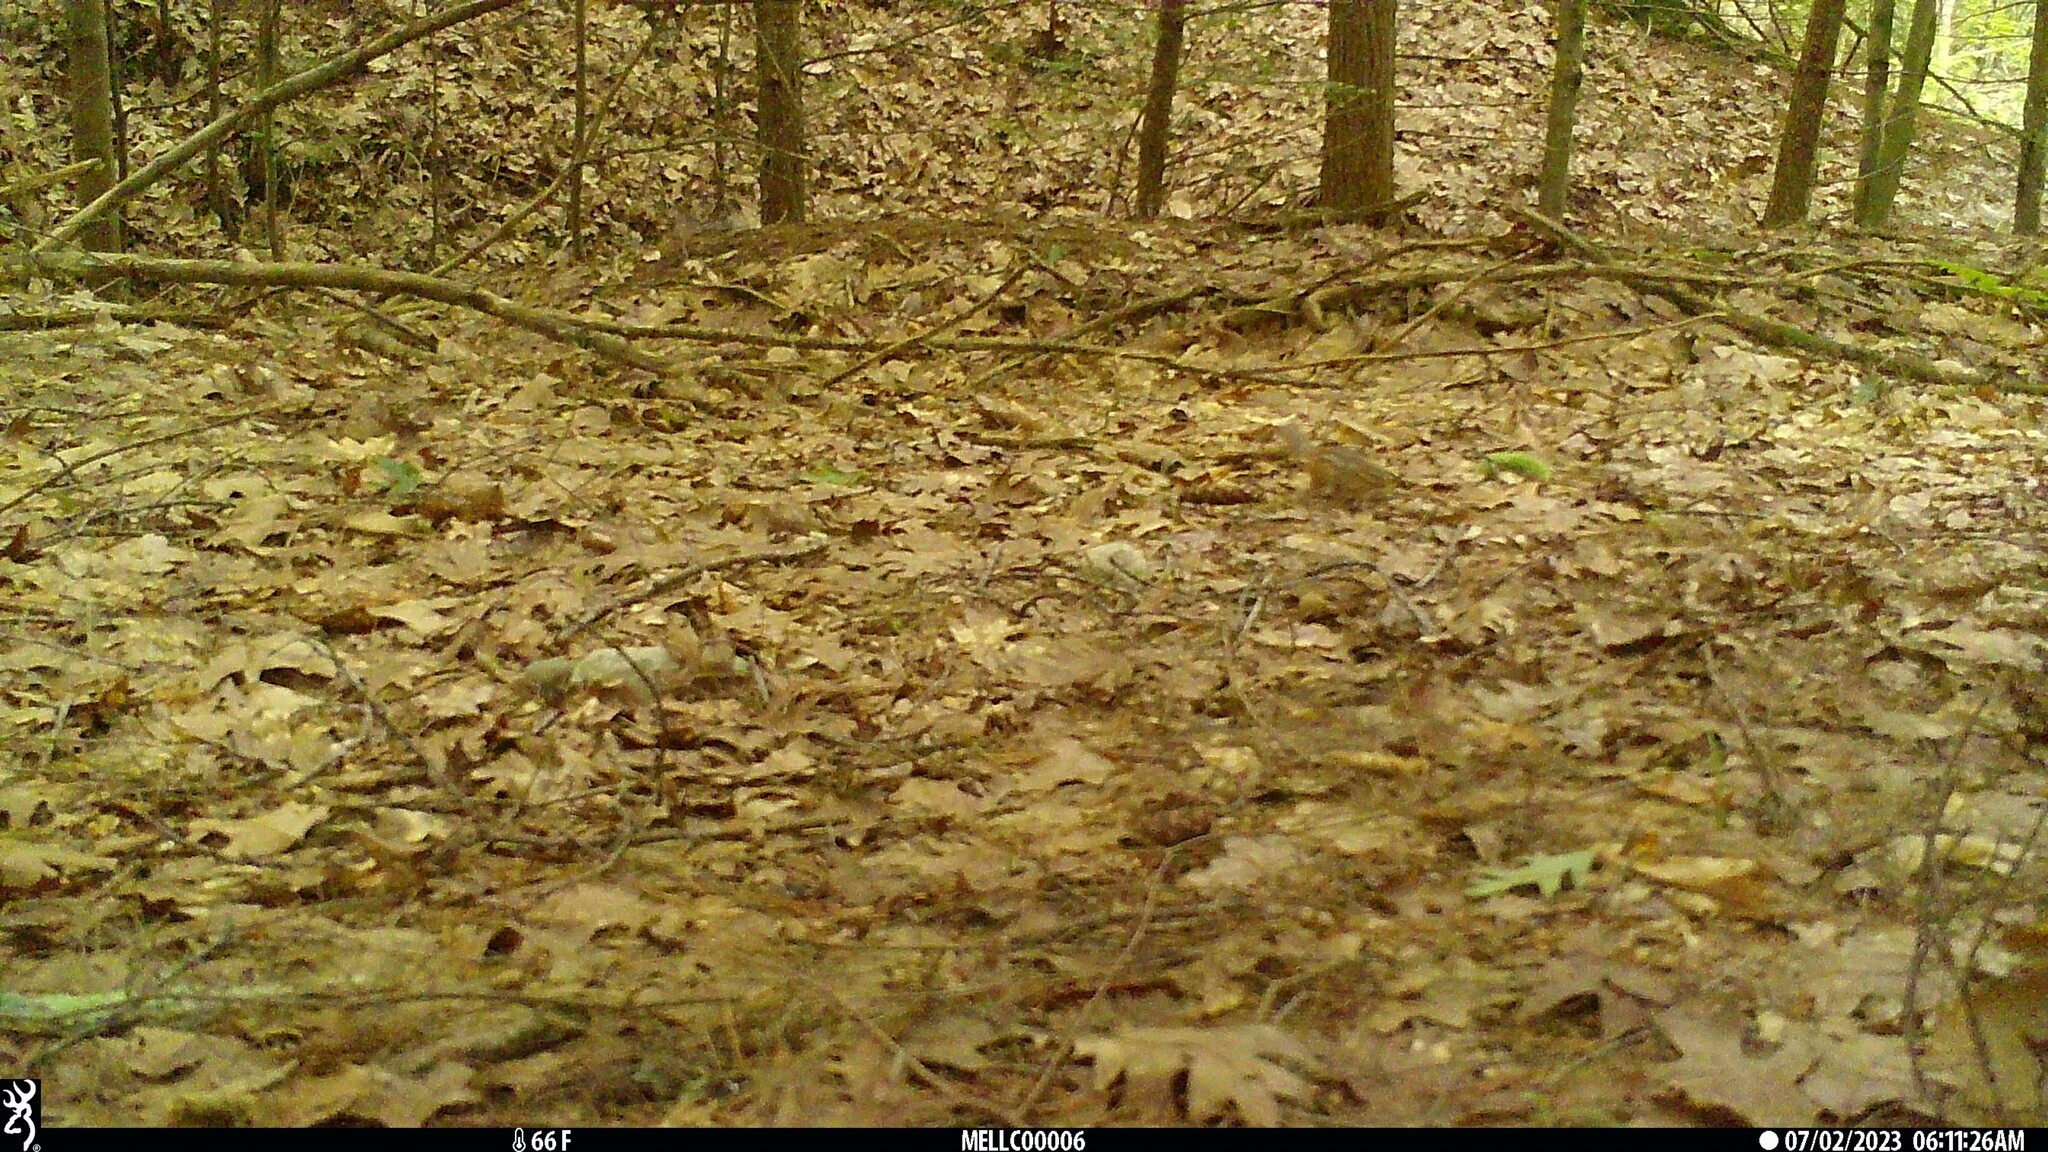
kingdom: Animalia
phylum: Chordata
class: Mammalia
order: Rodentia
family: Sciuridae
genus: Tamias
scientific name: Tamias striatus
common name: Eastern chipmunk
